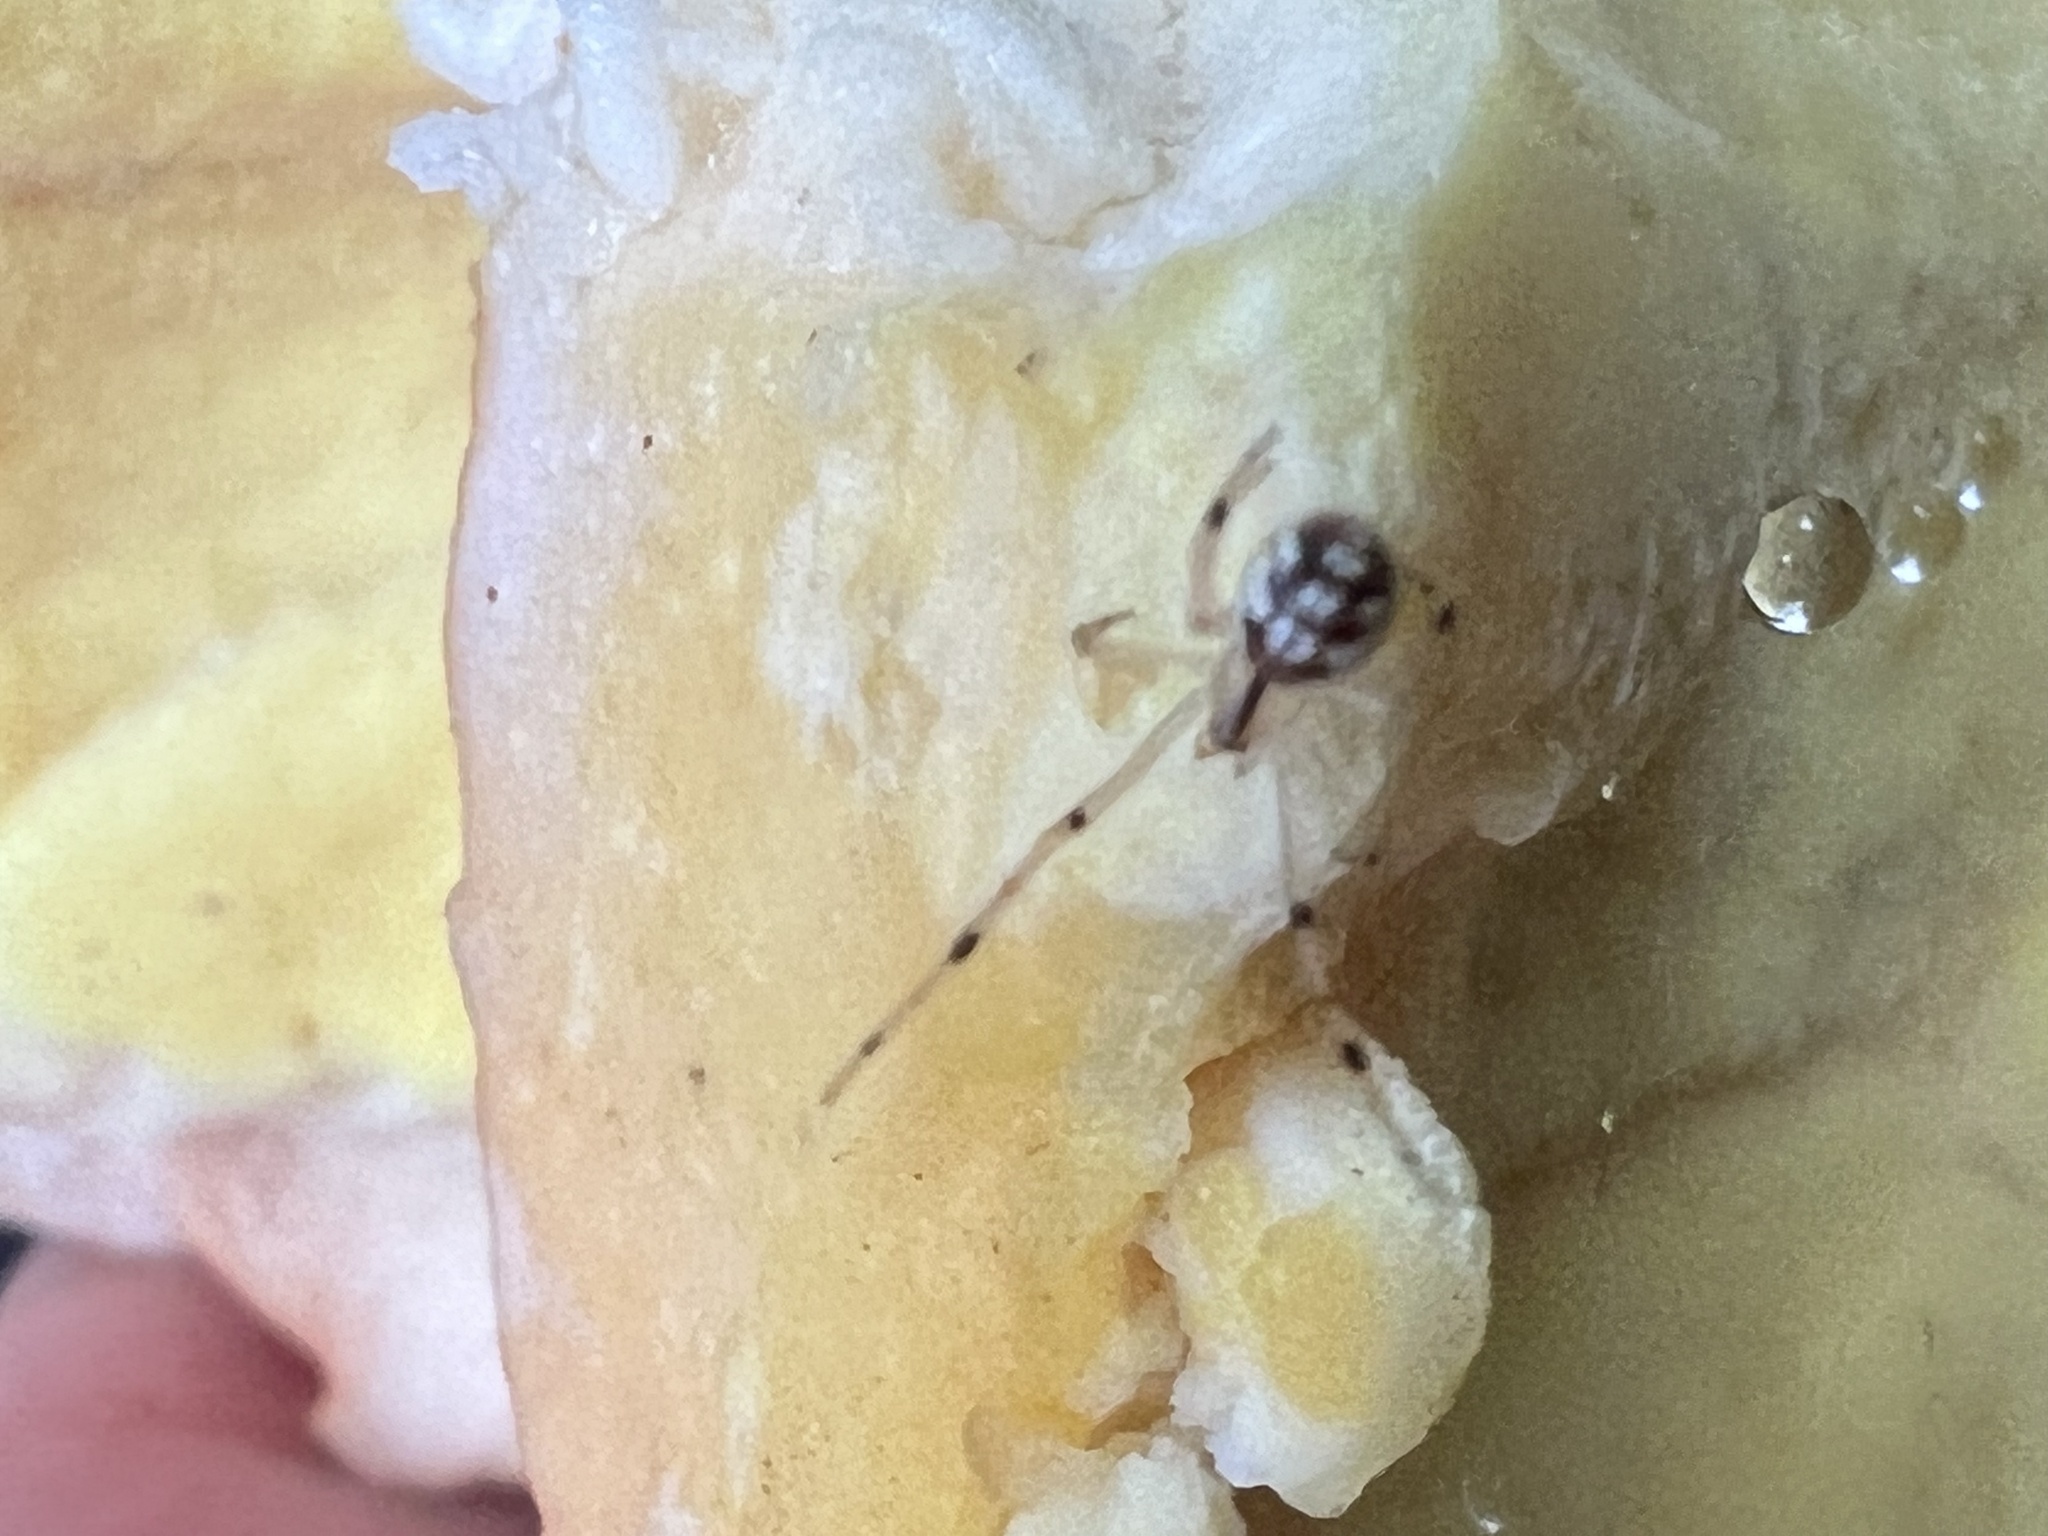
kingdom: Animalia
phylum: Arthropoda
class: Arachnida
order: Araneae
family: Theridiidae
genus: Phylloneta
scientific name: Phylloneta pictipes
